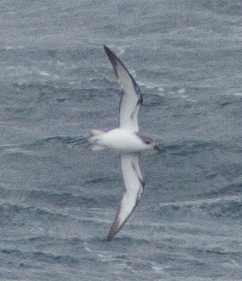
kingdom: Animalia
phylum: Chordata
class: Aves
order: Procellariiformes
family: Procellariidae
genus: Pterodroma
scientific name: Pterodroma cookii
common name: Cook's petrel
